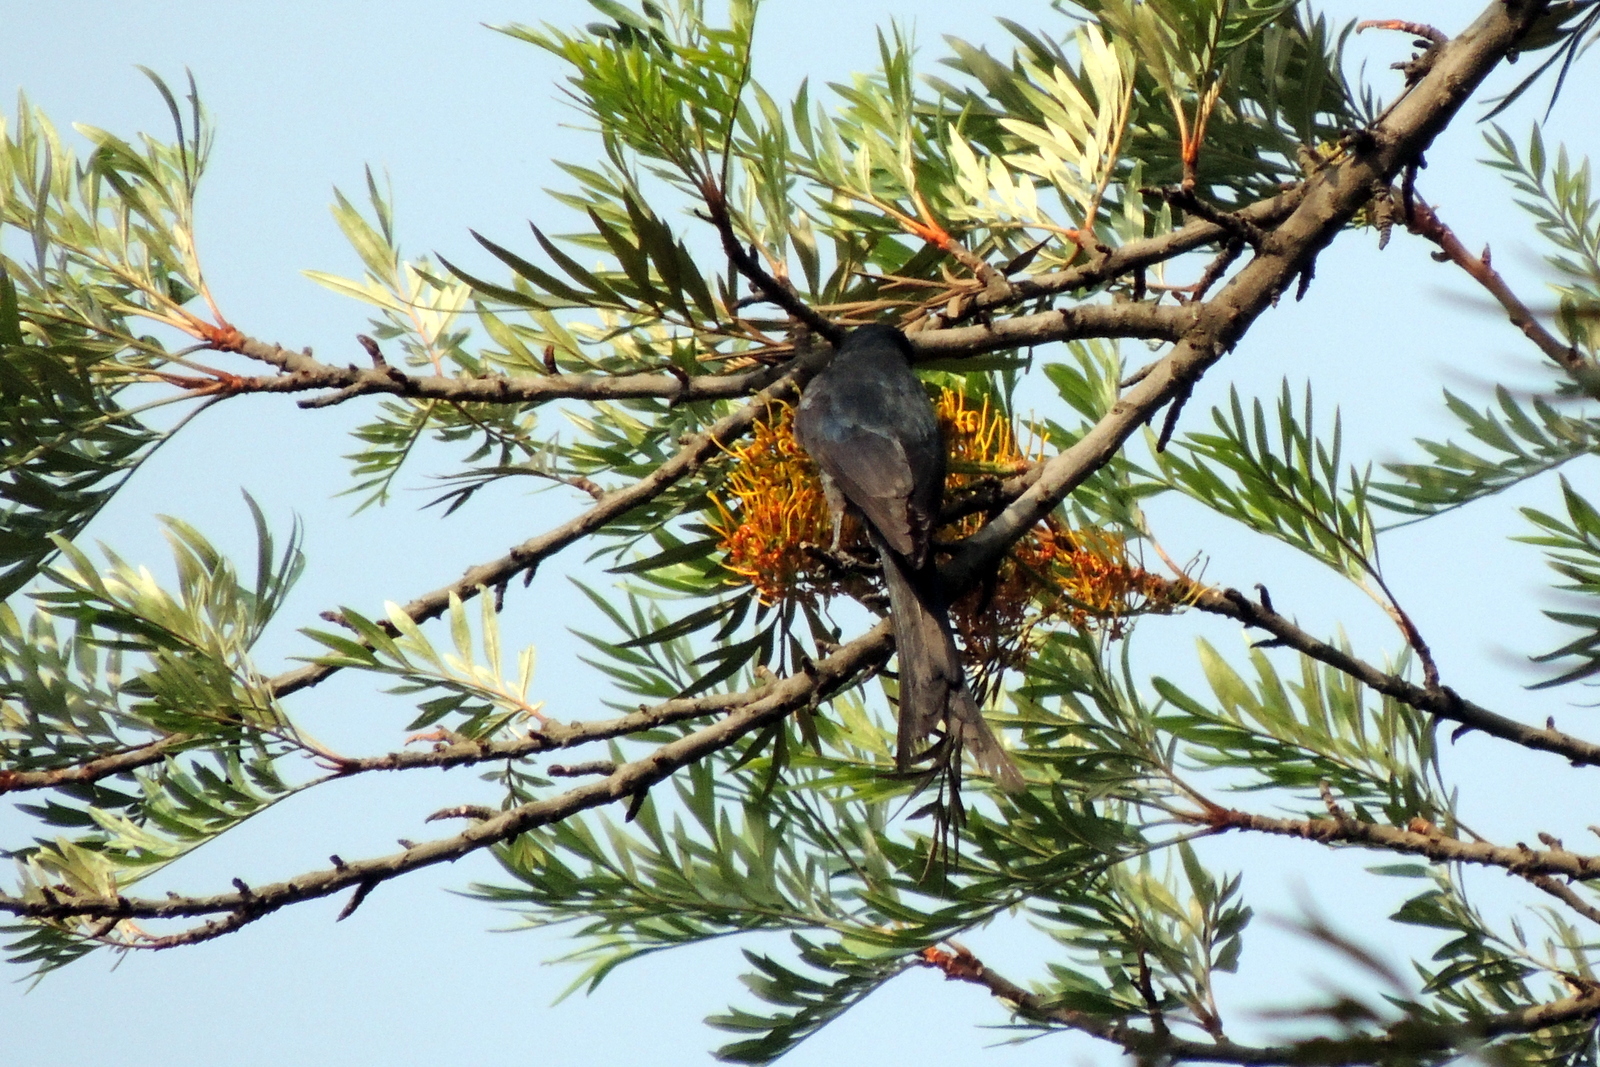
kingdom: Animalia
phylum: Chordata
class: Aves
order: Passeriformes
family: Dicruridae
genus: Dicrurus
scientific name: Dicrurus leucophaeus
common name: Ashy drongo
